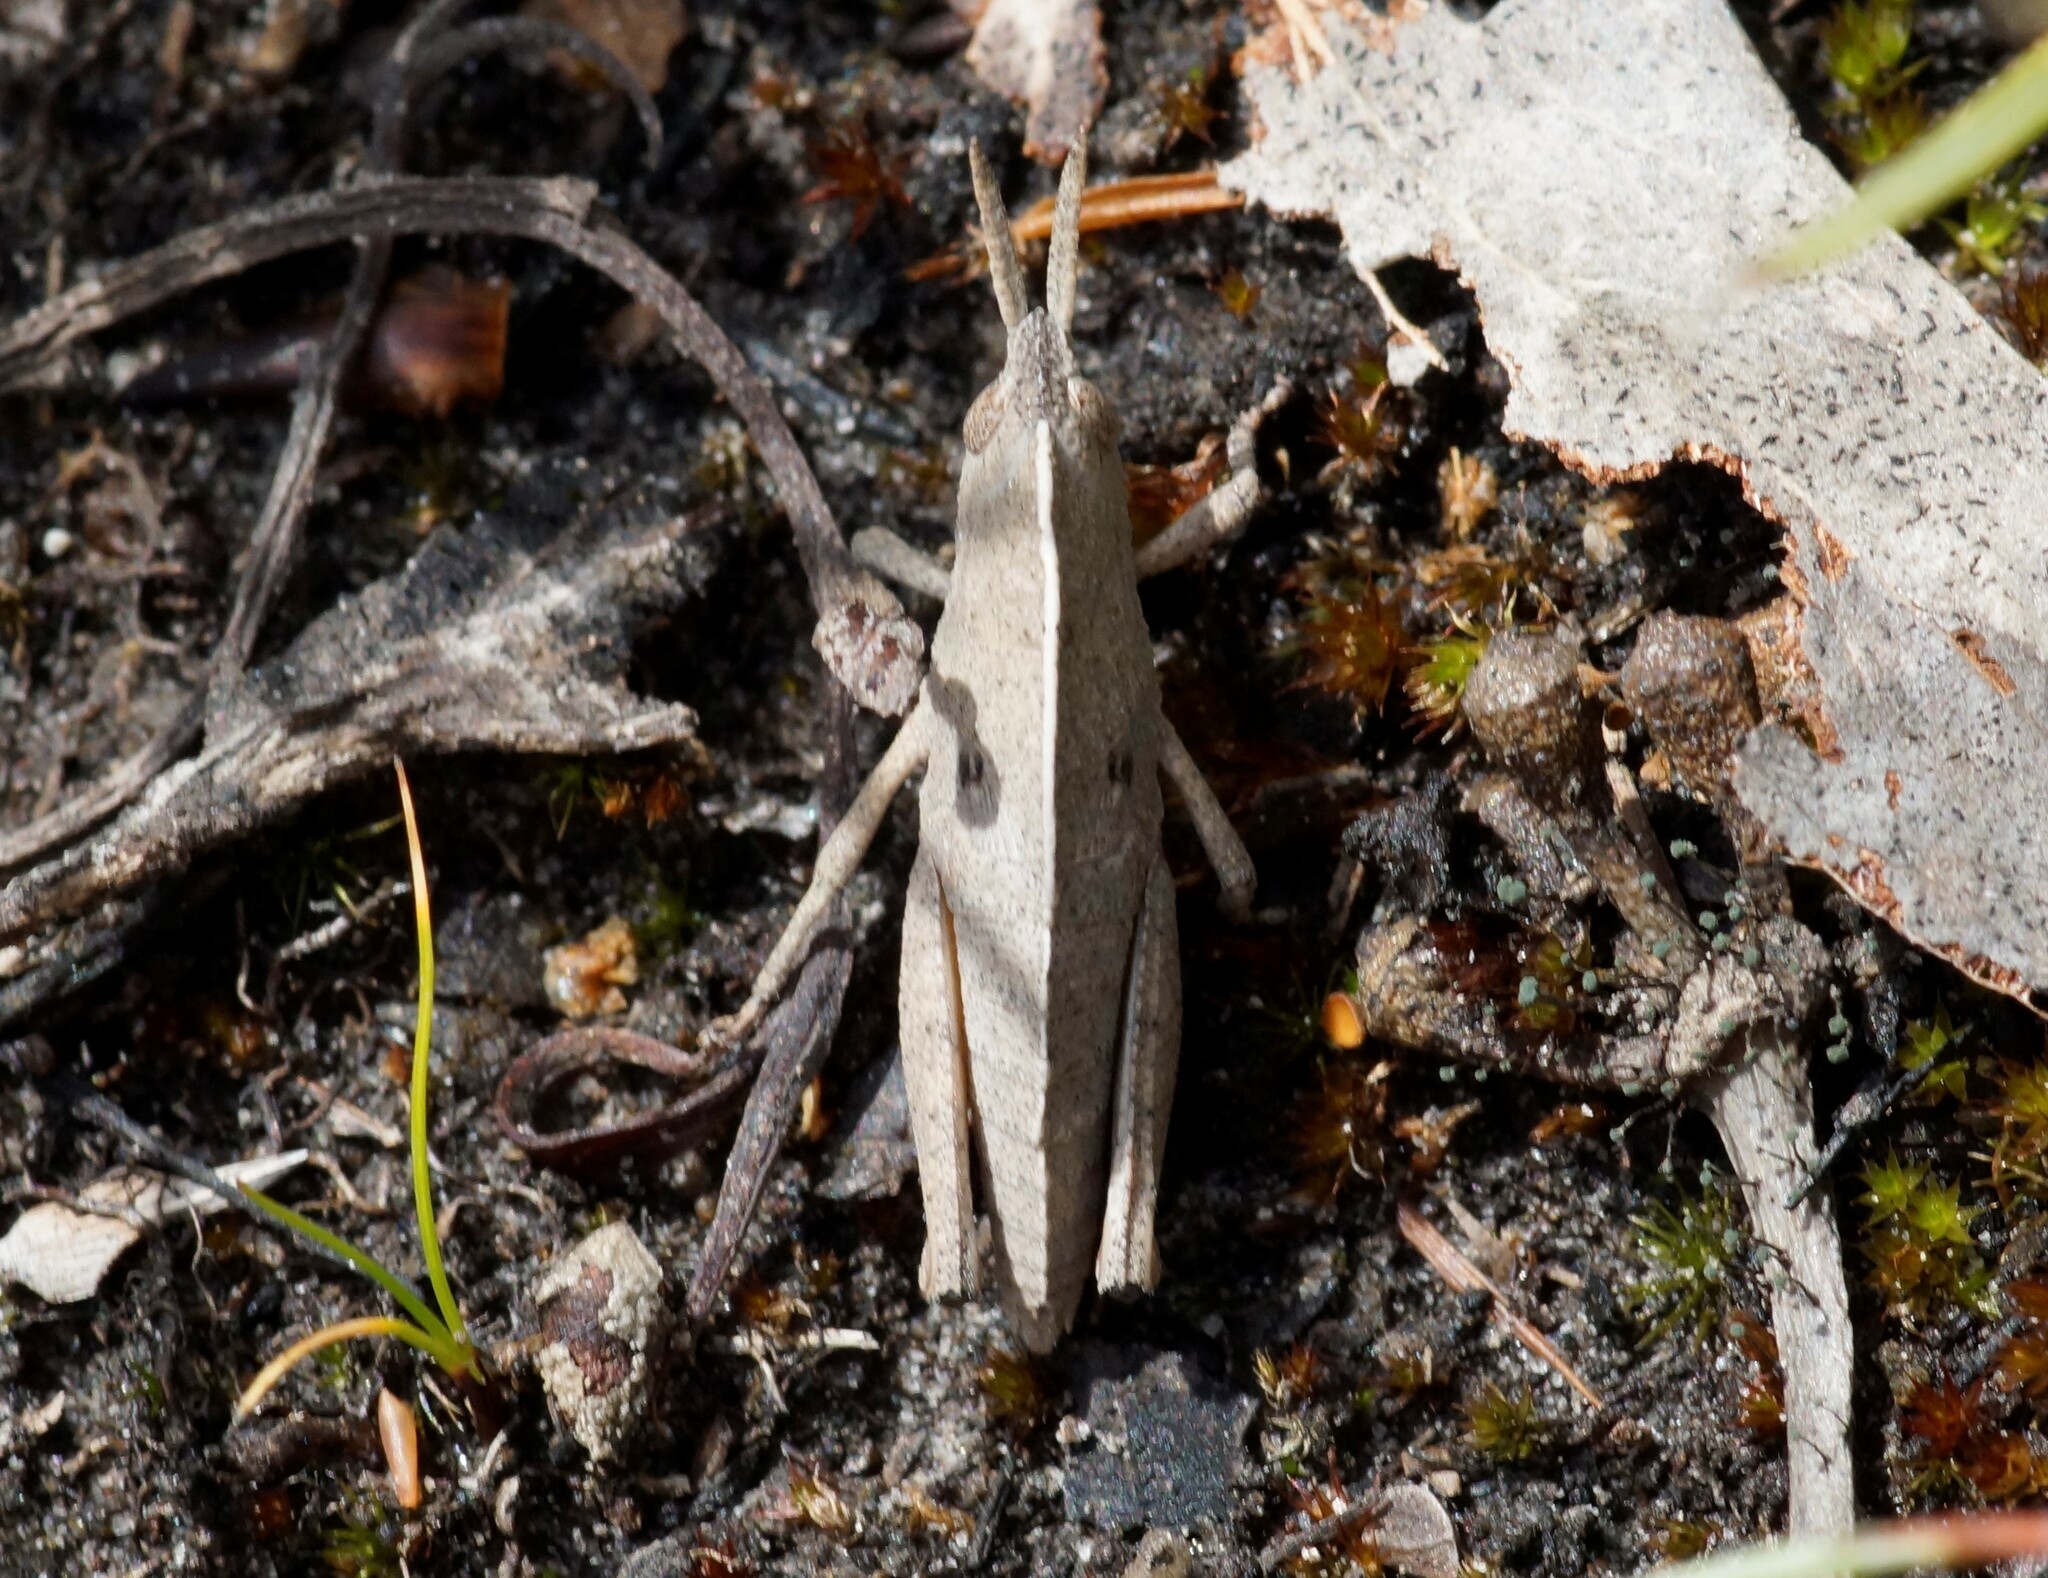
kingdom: Animalia
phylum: Arthropoda
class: Insecta
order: Orthoptera
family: Acrididae
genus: Goniaea
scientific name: Goniaea australasiae
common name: Gumleaf grasshopper
